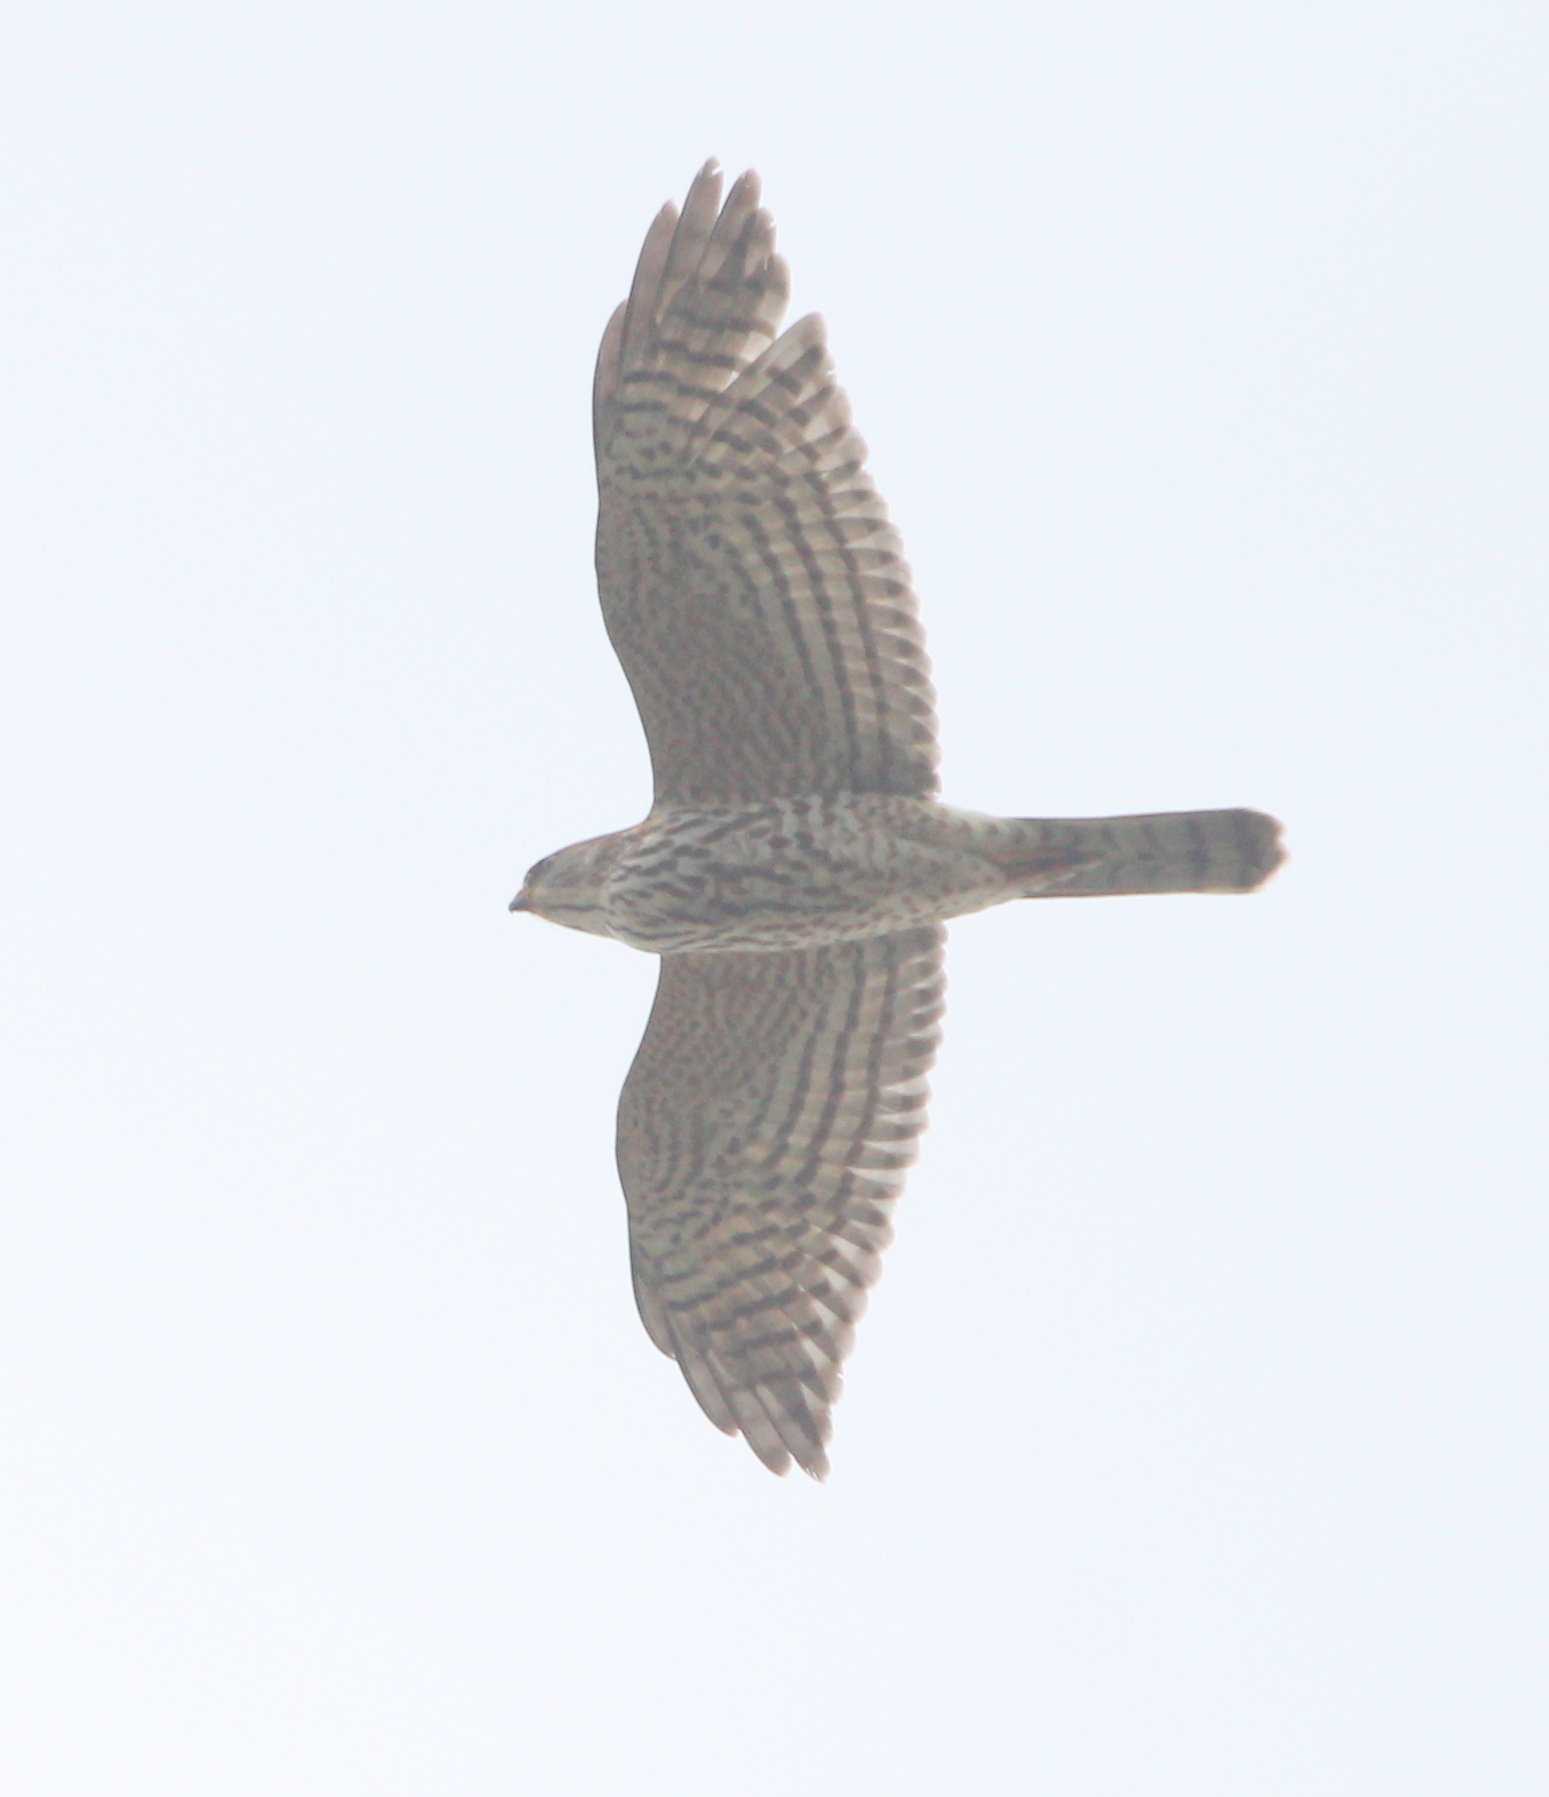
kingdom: Animalia
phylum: Chordata
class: Aves
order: Accipitriformes
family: Accipitridae
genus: Accipiter
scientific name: Accipiter brevipes
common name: Levant sparrowhawk
